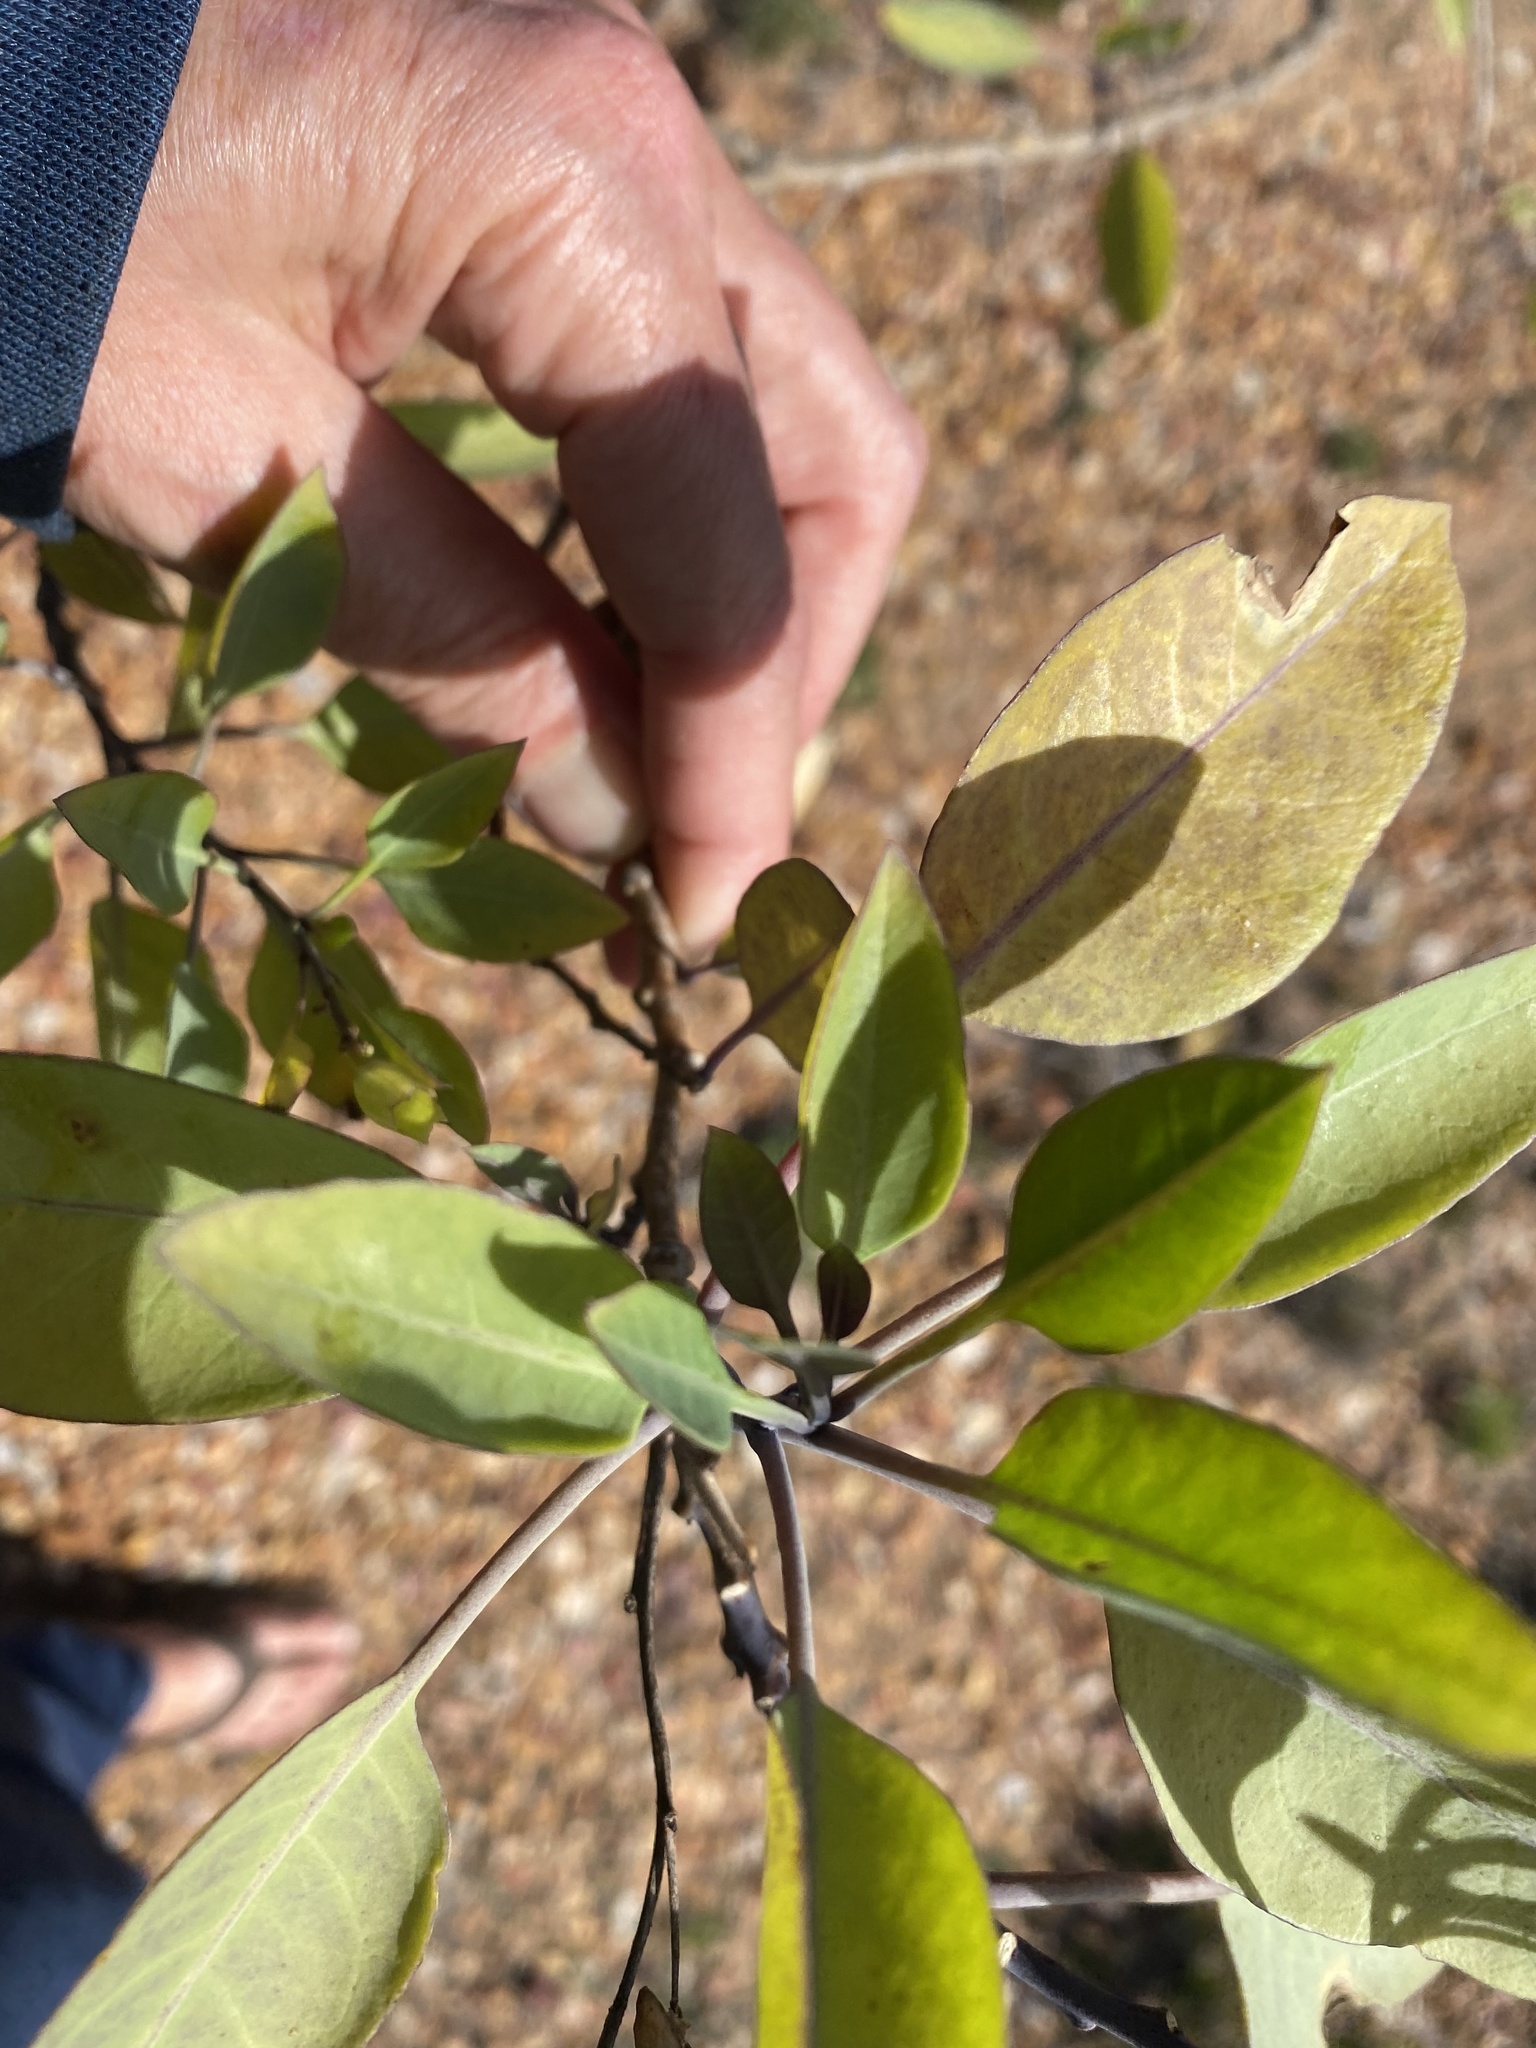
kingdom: Plantae
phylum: Tracheophyta
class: Magnoliopsida
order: Solanales
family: Solanaceae
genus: Nicotiana
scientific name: Nicotiana glauca
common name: Tree tobacco
